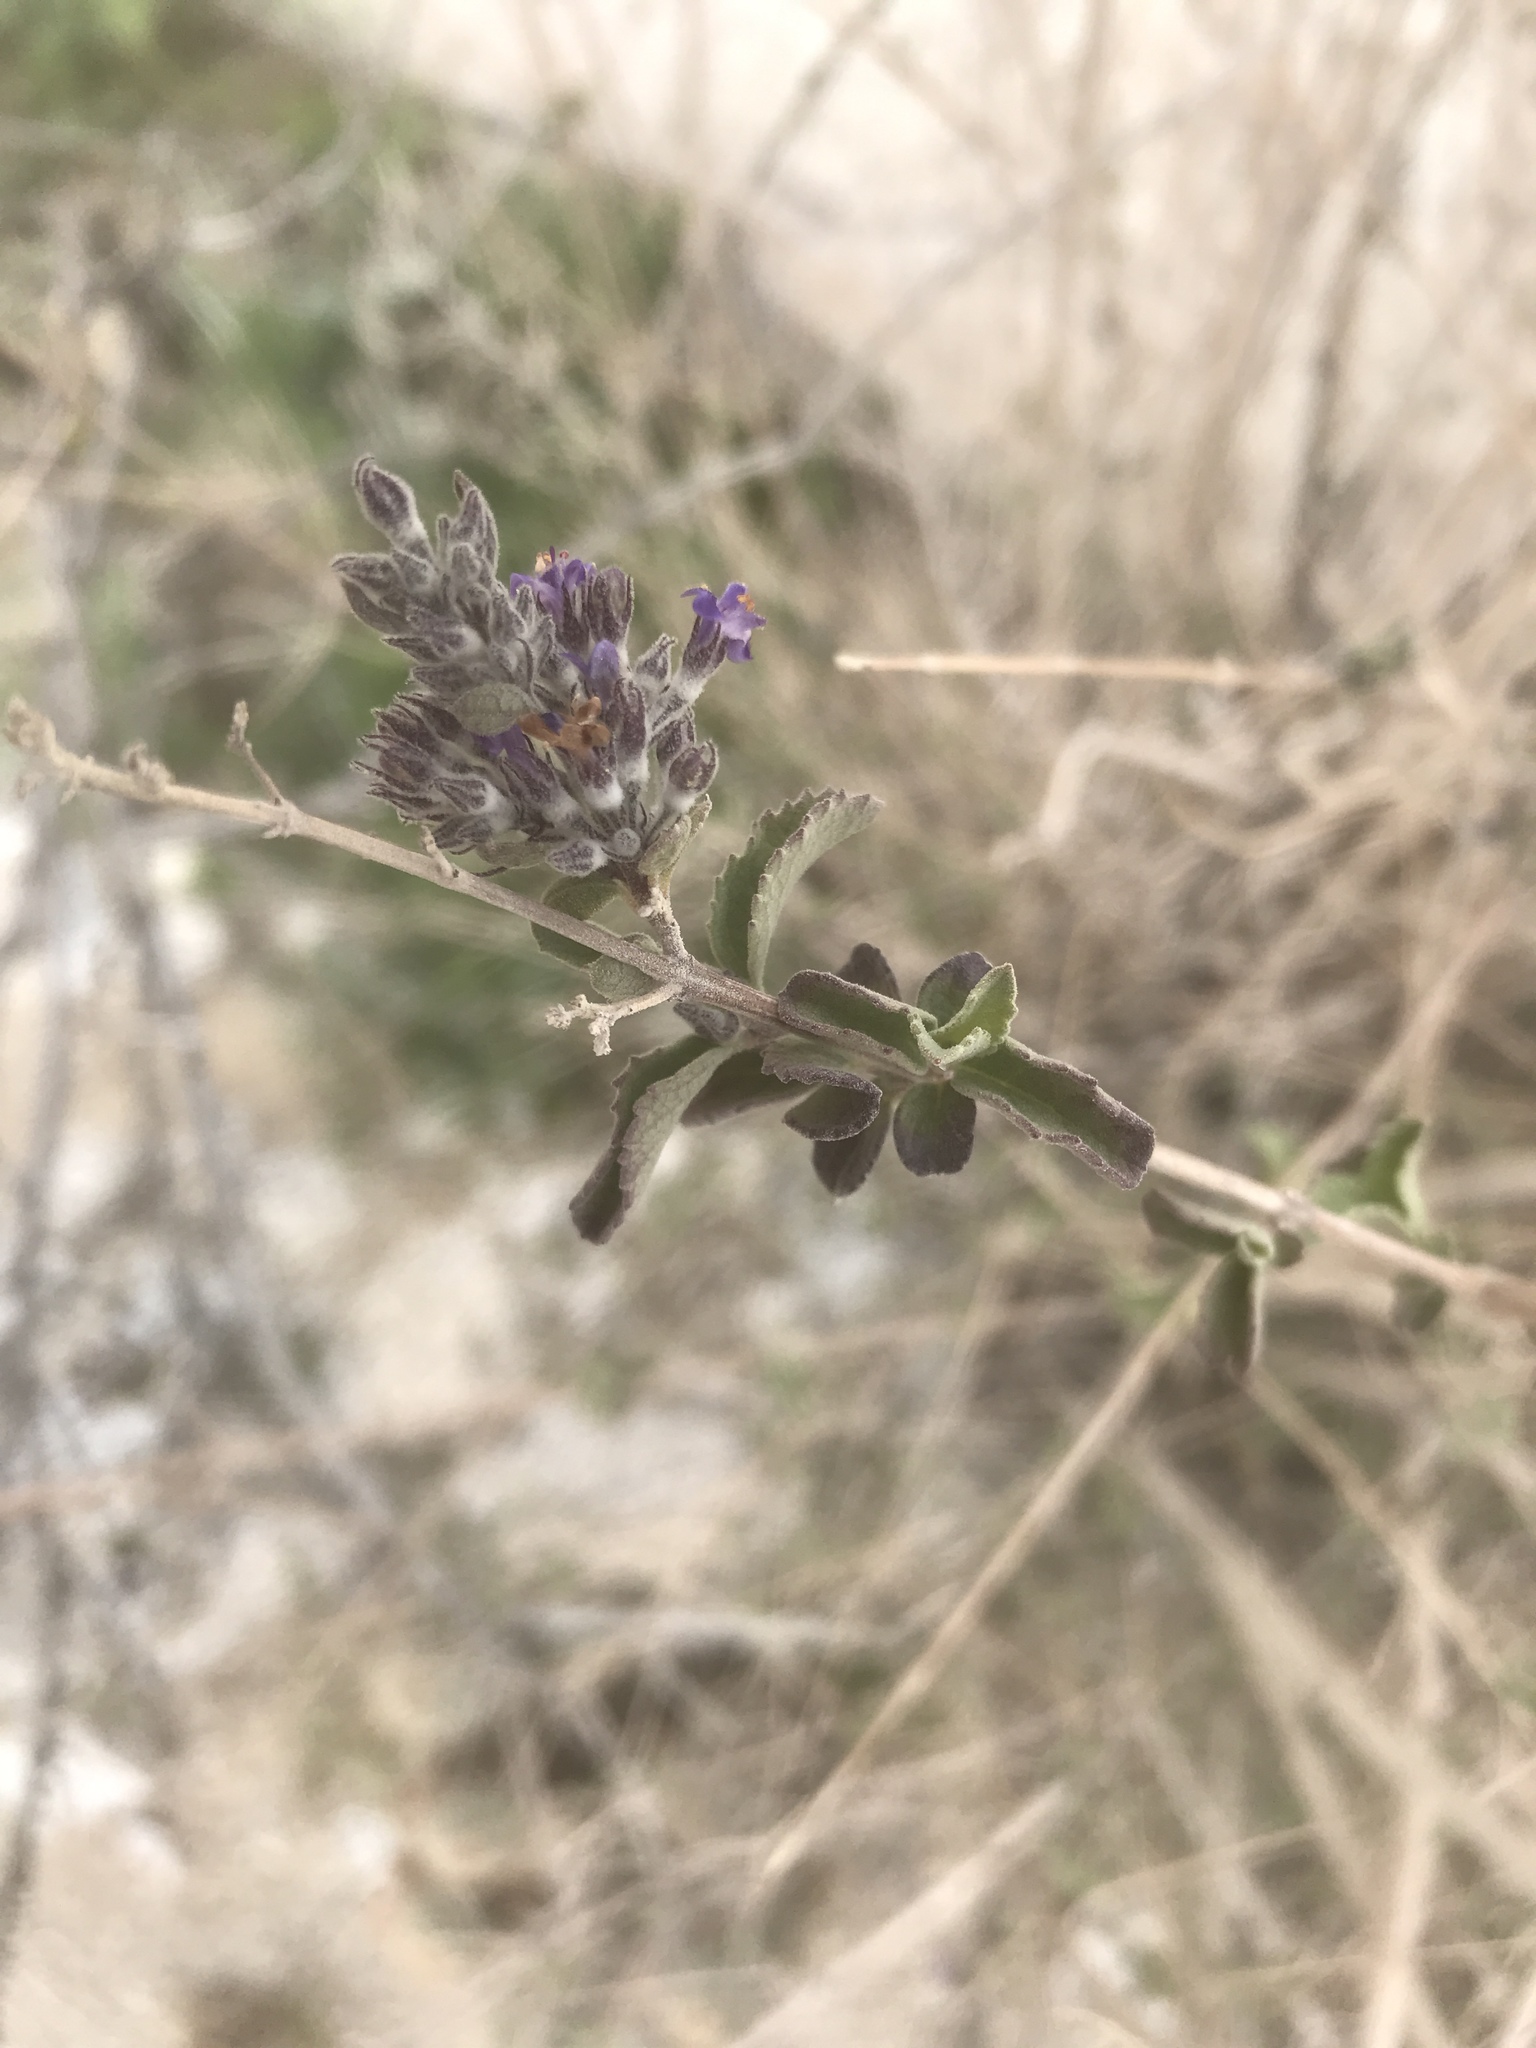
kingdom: Plantae
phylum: Tracheophyta
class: Magnoliopsida
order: Lamiales
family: Lamiaceae
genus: Condea
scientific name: Condea emoryi
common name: Chia
